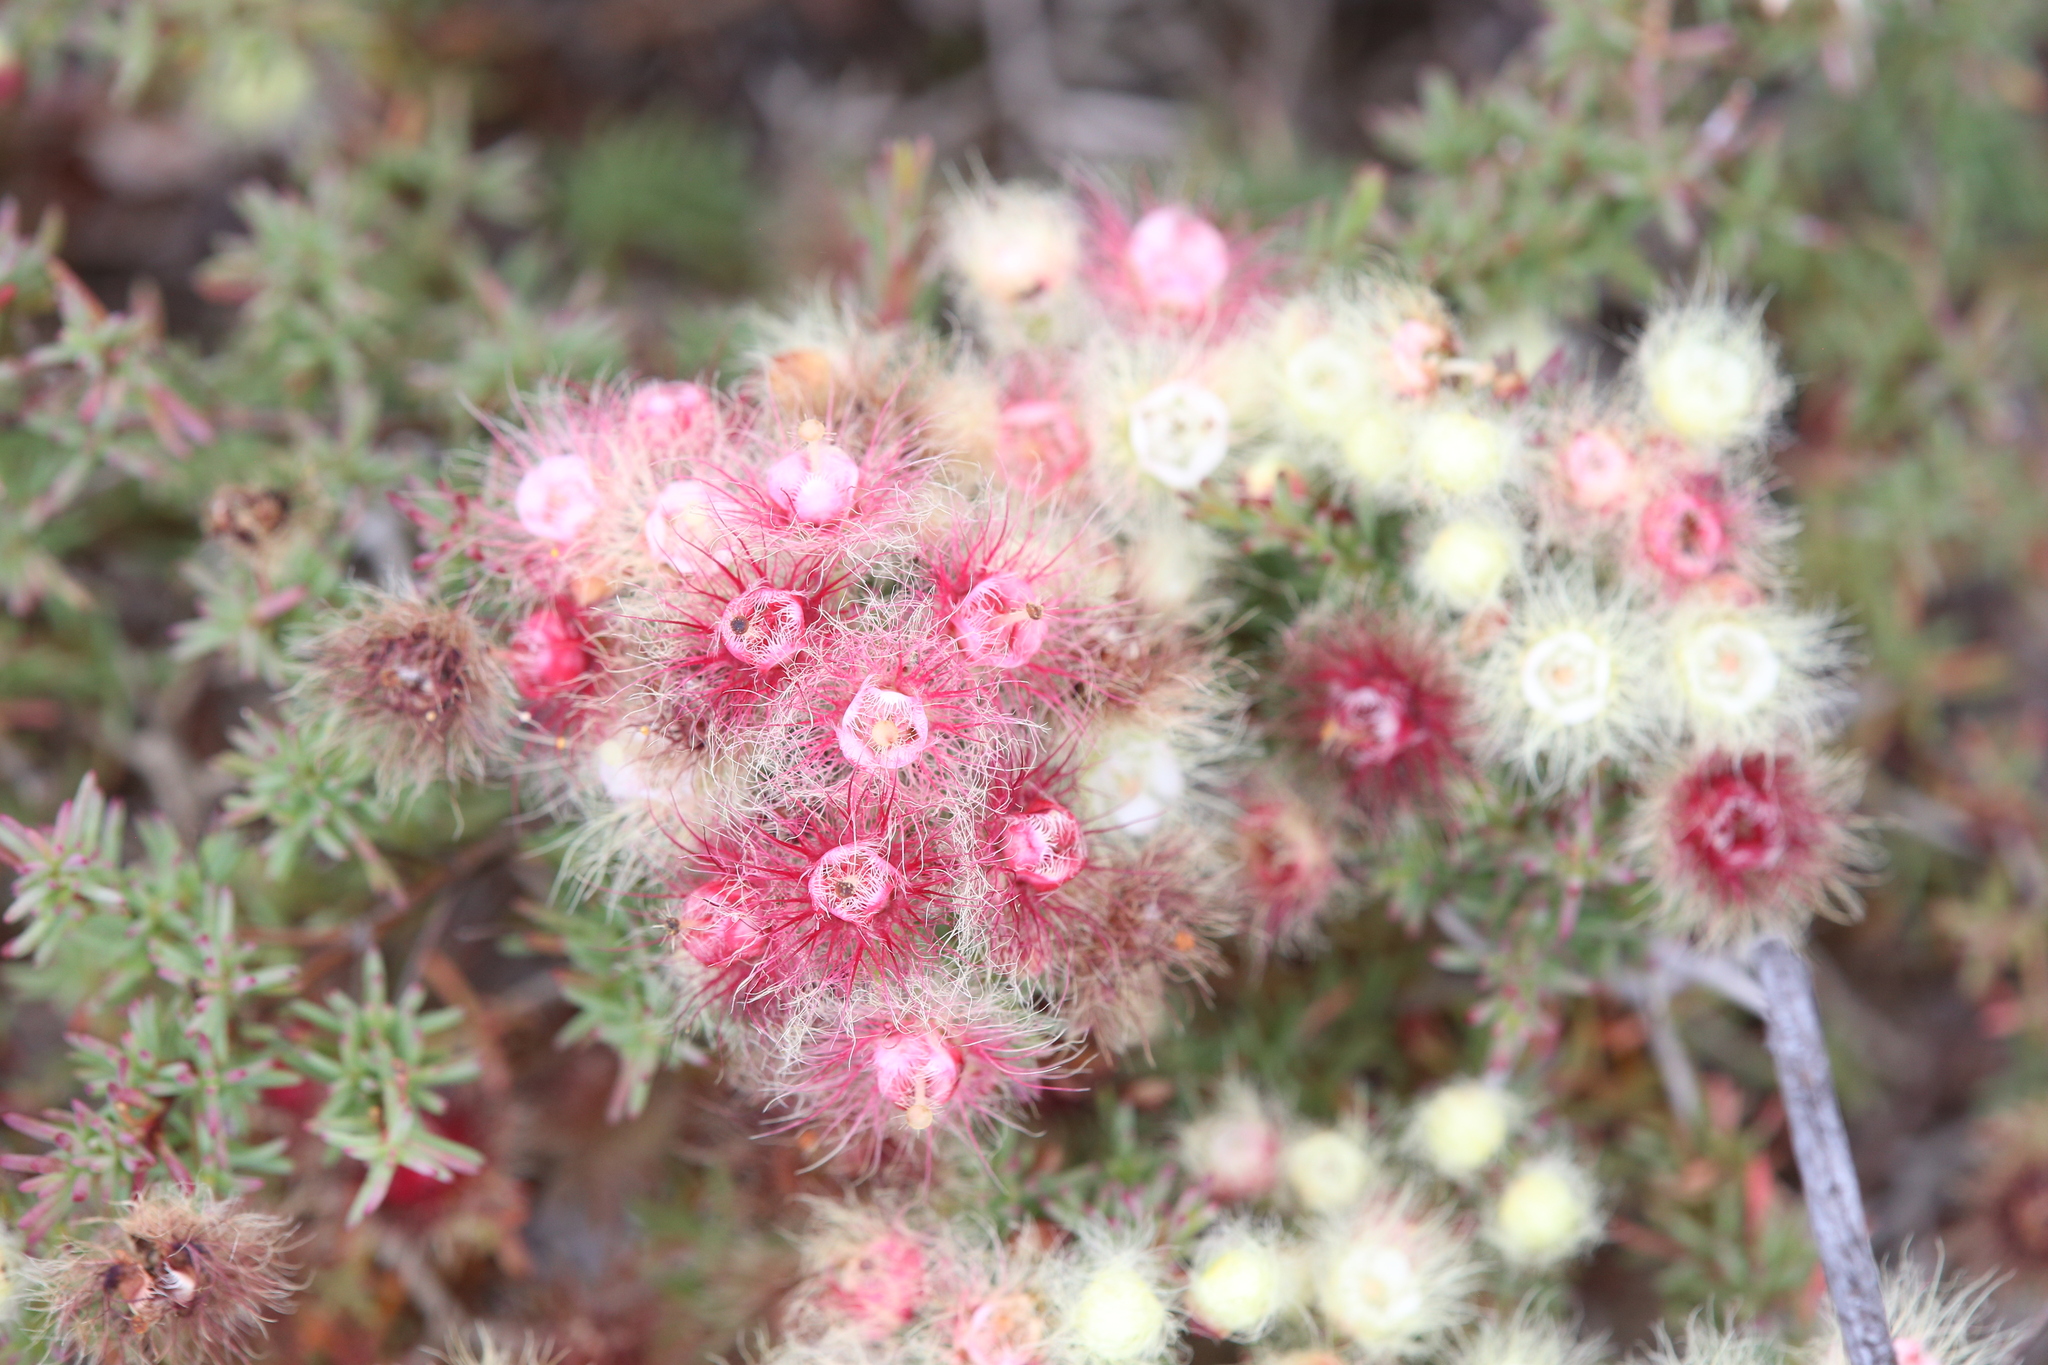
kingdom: Plantae
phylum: Tracheophyta
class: Magnoliopsida
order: Myrtales
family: Myrtaceae
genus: Verticordia
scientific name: Verticordia huegelii
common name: Variegate feather-flower
